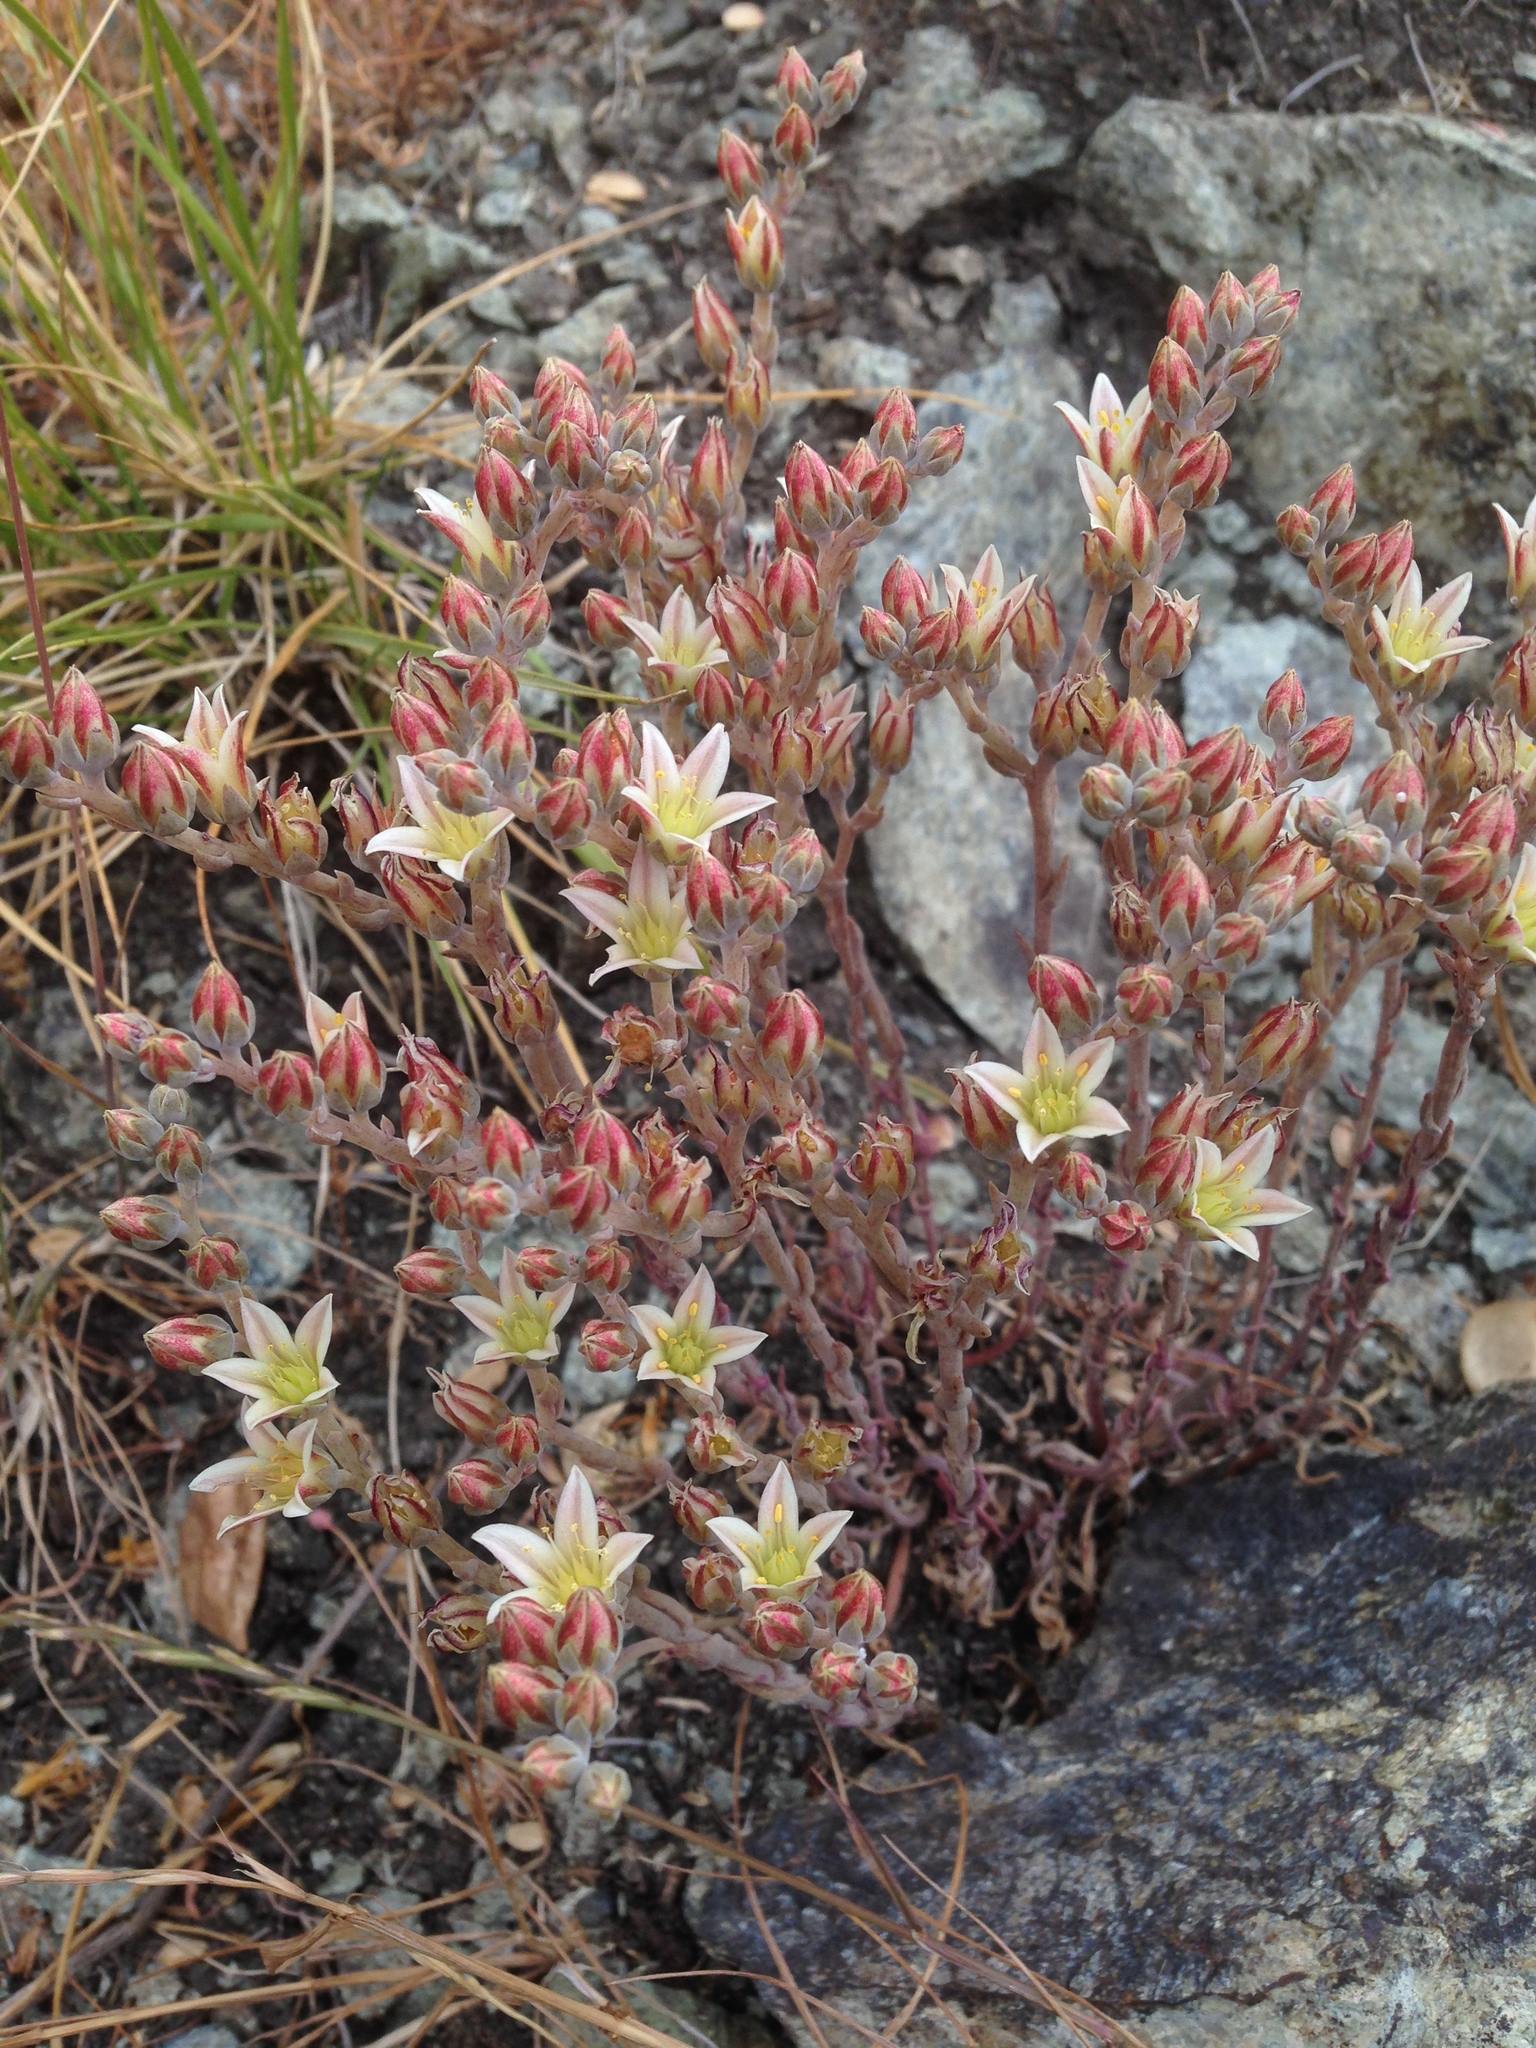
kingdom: Plantae
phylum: Tracheophyta
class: Magnoliopsida
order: Saxifragales
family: Crassulaceae
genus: Dudleya
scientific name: Dudleya blochmaniae
